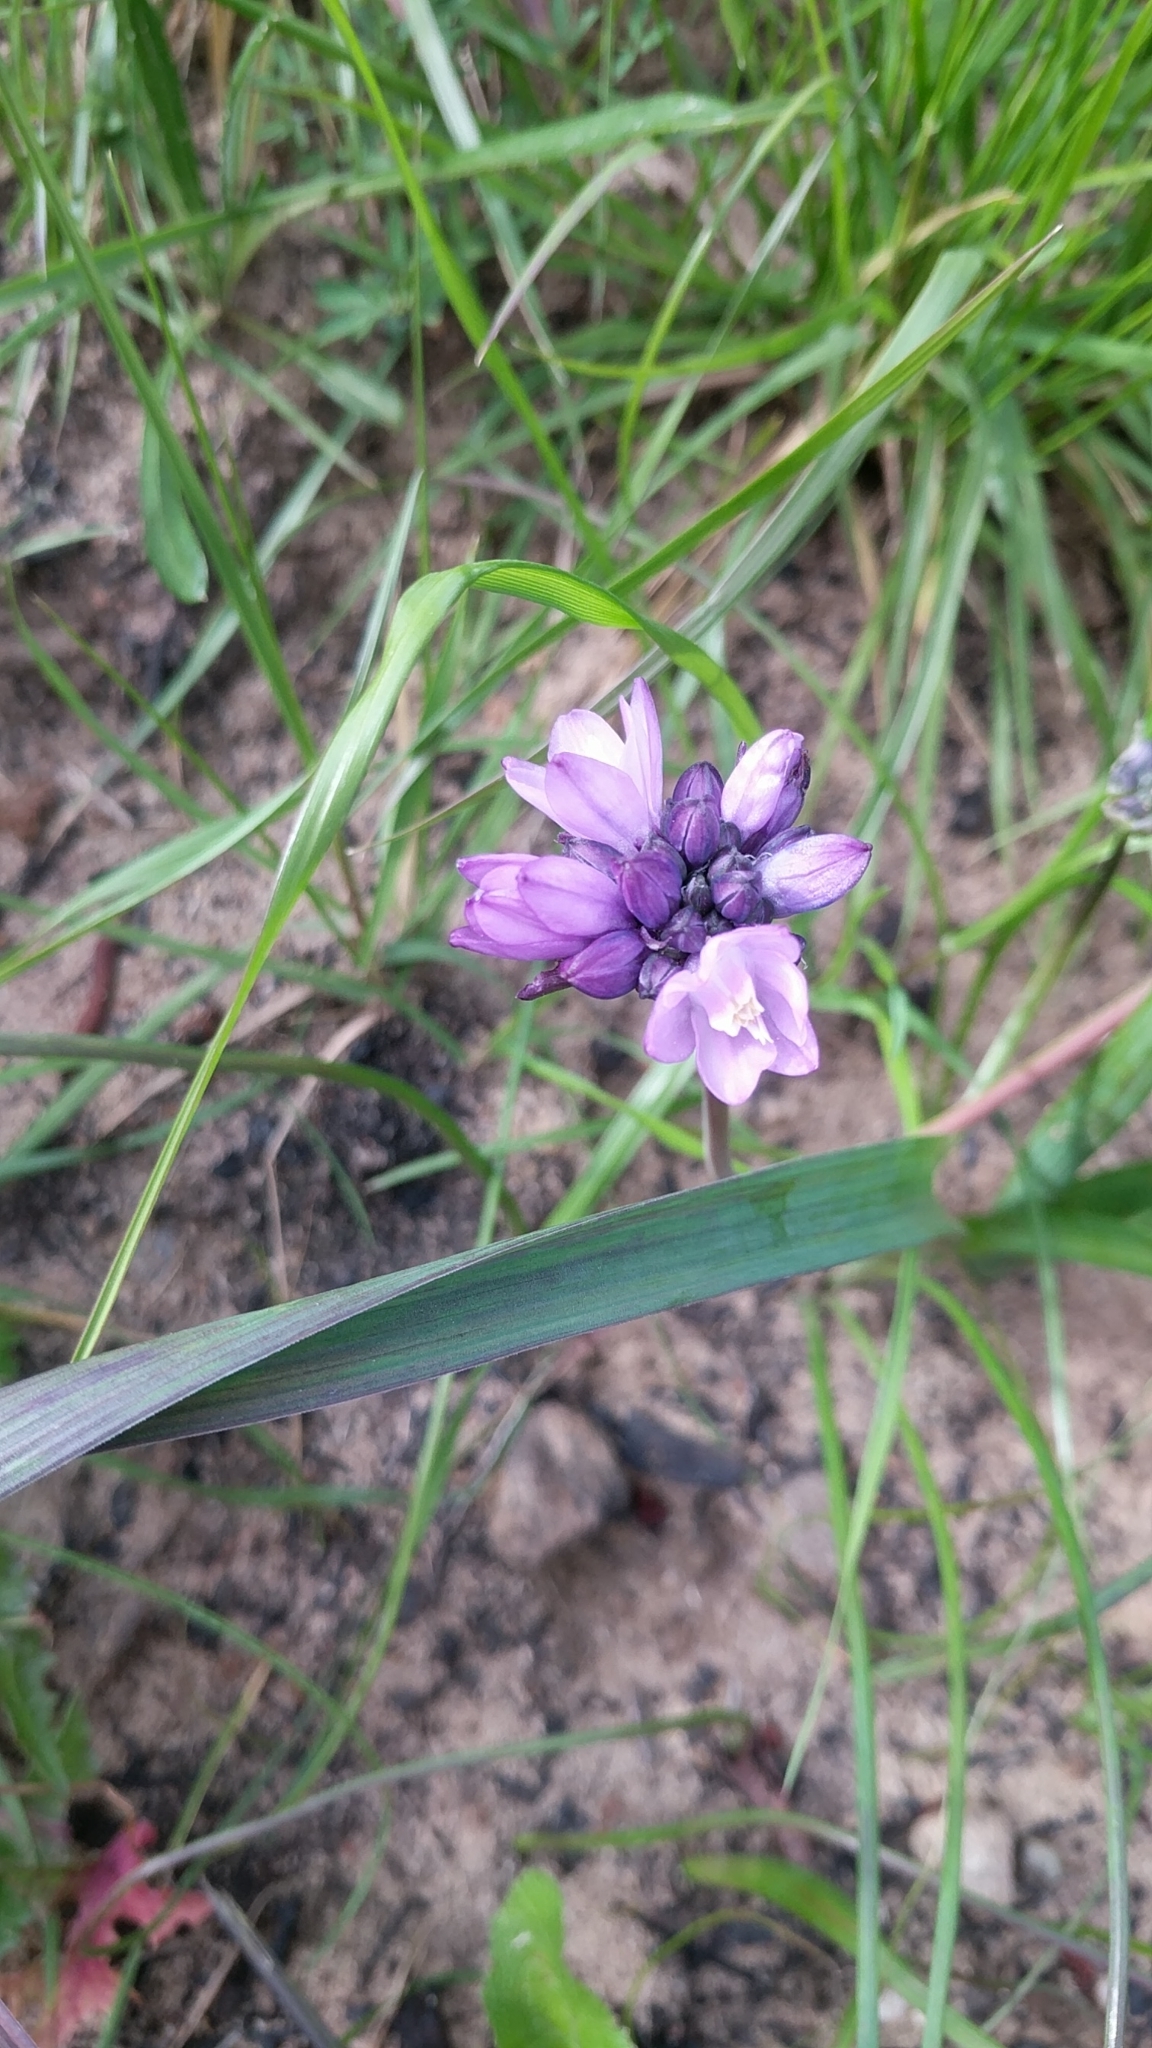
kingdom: Plantae
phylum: Tracheophyta
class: Liliopsida
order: Asparagales
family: Asparagaceae
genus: Dipterostemon
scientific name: Dipterostemon capitatus
